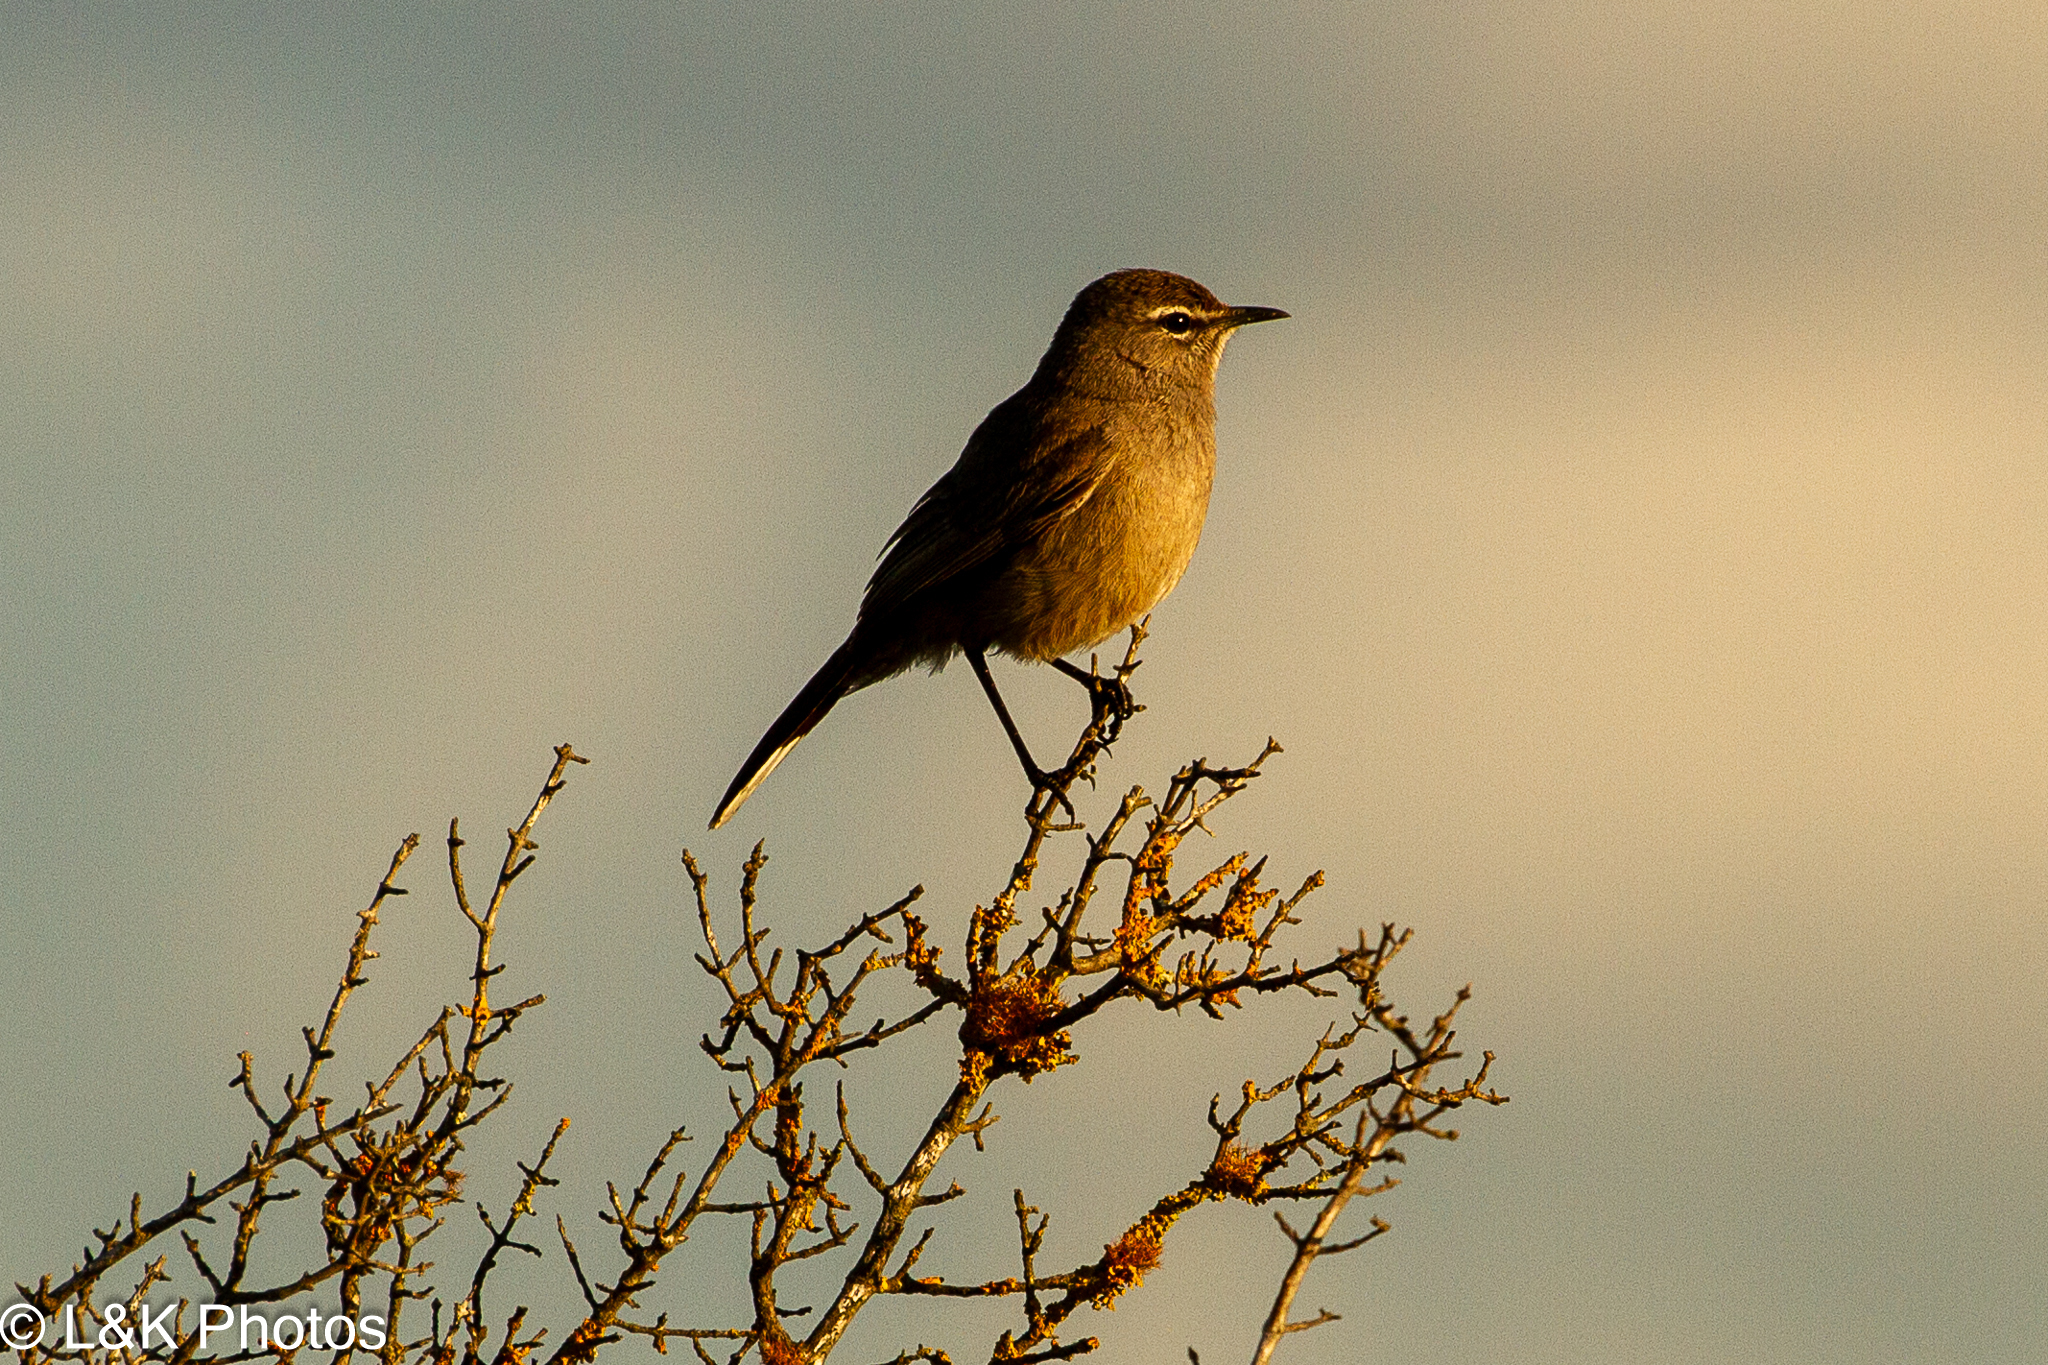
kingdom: Animalia
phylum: Chordata
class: Aves
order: Passeriformes
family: Muscicapidae
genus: Erythropygia
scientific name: Erythropygia coryphoeus
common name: Karoo scrub robin
